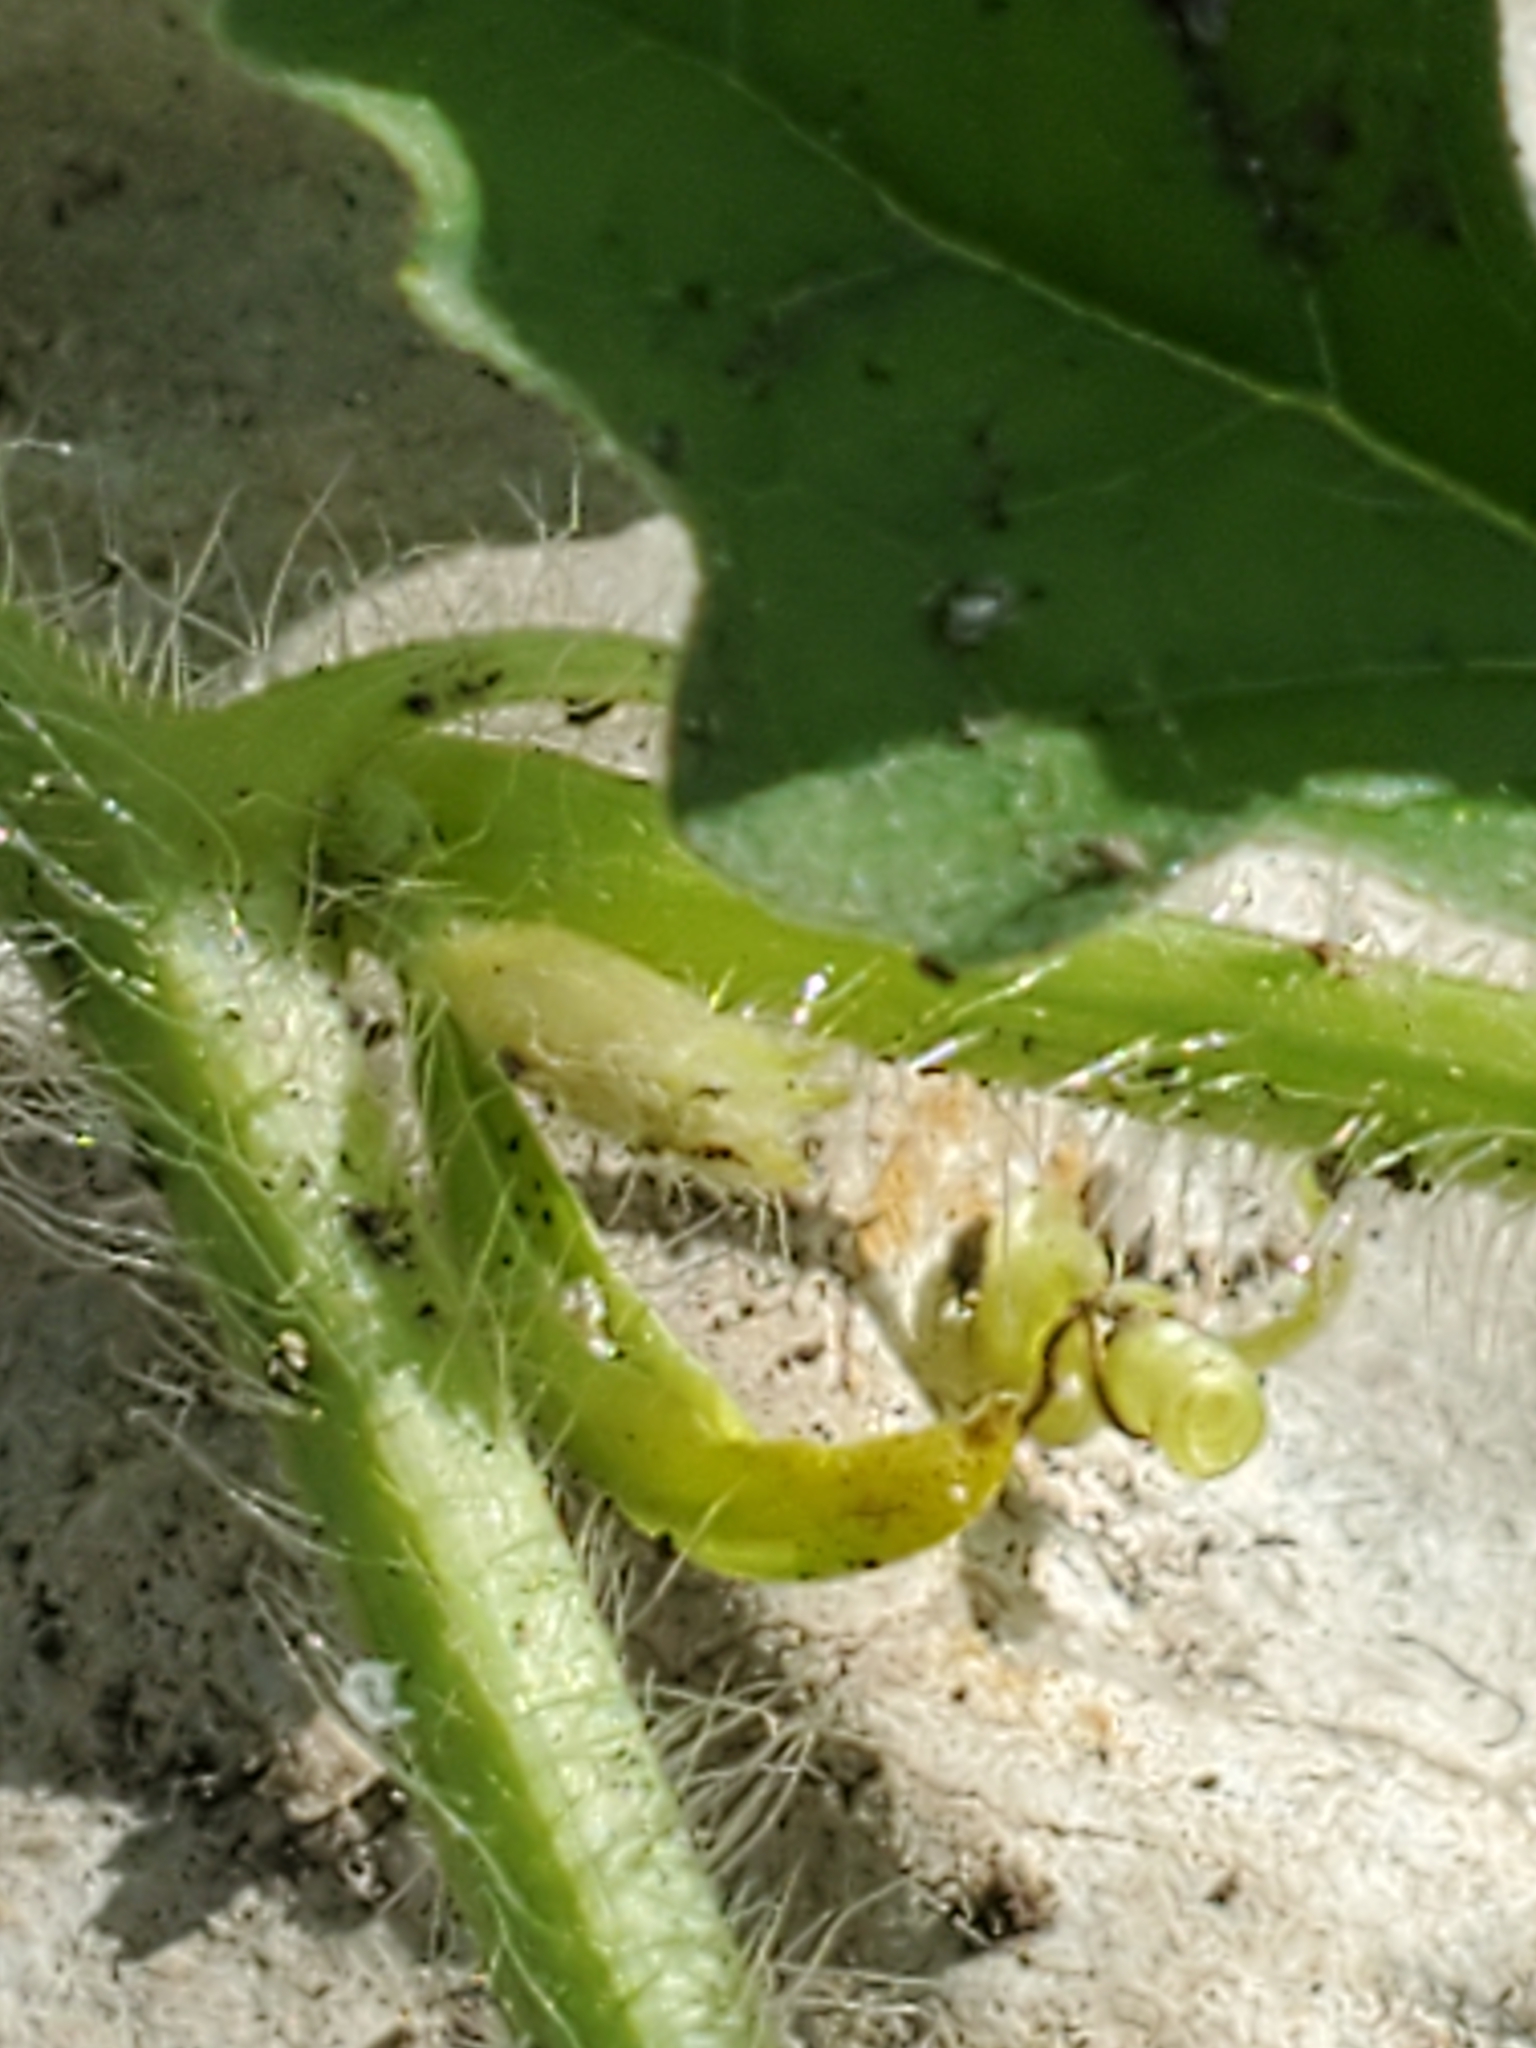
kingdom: Plantae
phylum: Tracheophyta
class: Magnoliopsida
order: Cucurbitales
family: Cucurbitaceae
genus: Citrullus
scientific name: Citrullus lanatus
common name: Watermelon
